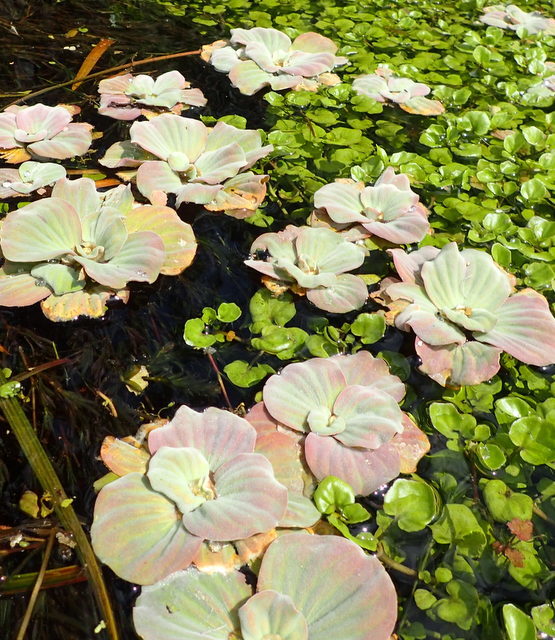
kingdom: Plantae
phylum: Tracheophyta
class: Liliopsida
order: Alismatales
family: Araceae
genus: Pistia
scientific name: Pistia stratiotes
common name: Water lettuce
